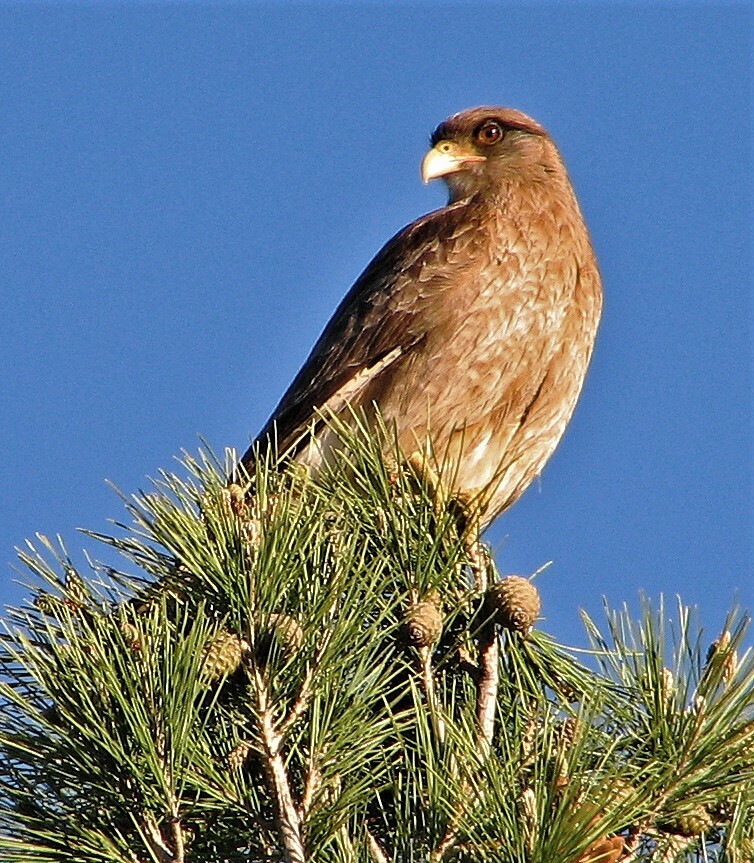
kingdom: Animalia
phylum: Chordata
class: Aves
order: Falconiformes
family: Falconidae
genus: Daptrius
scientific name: Daptrius
